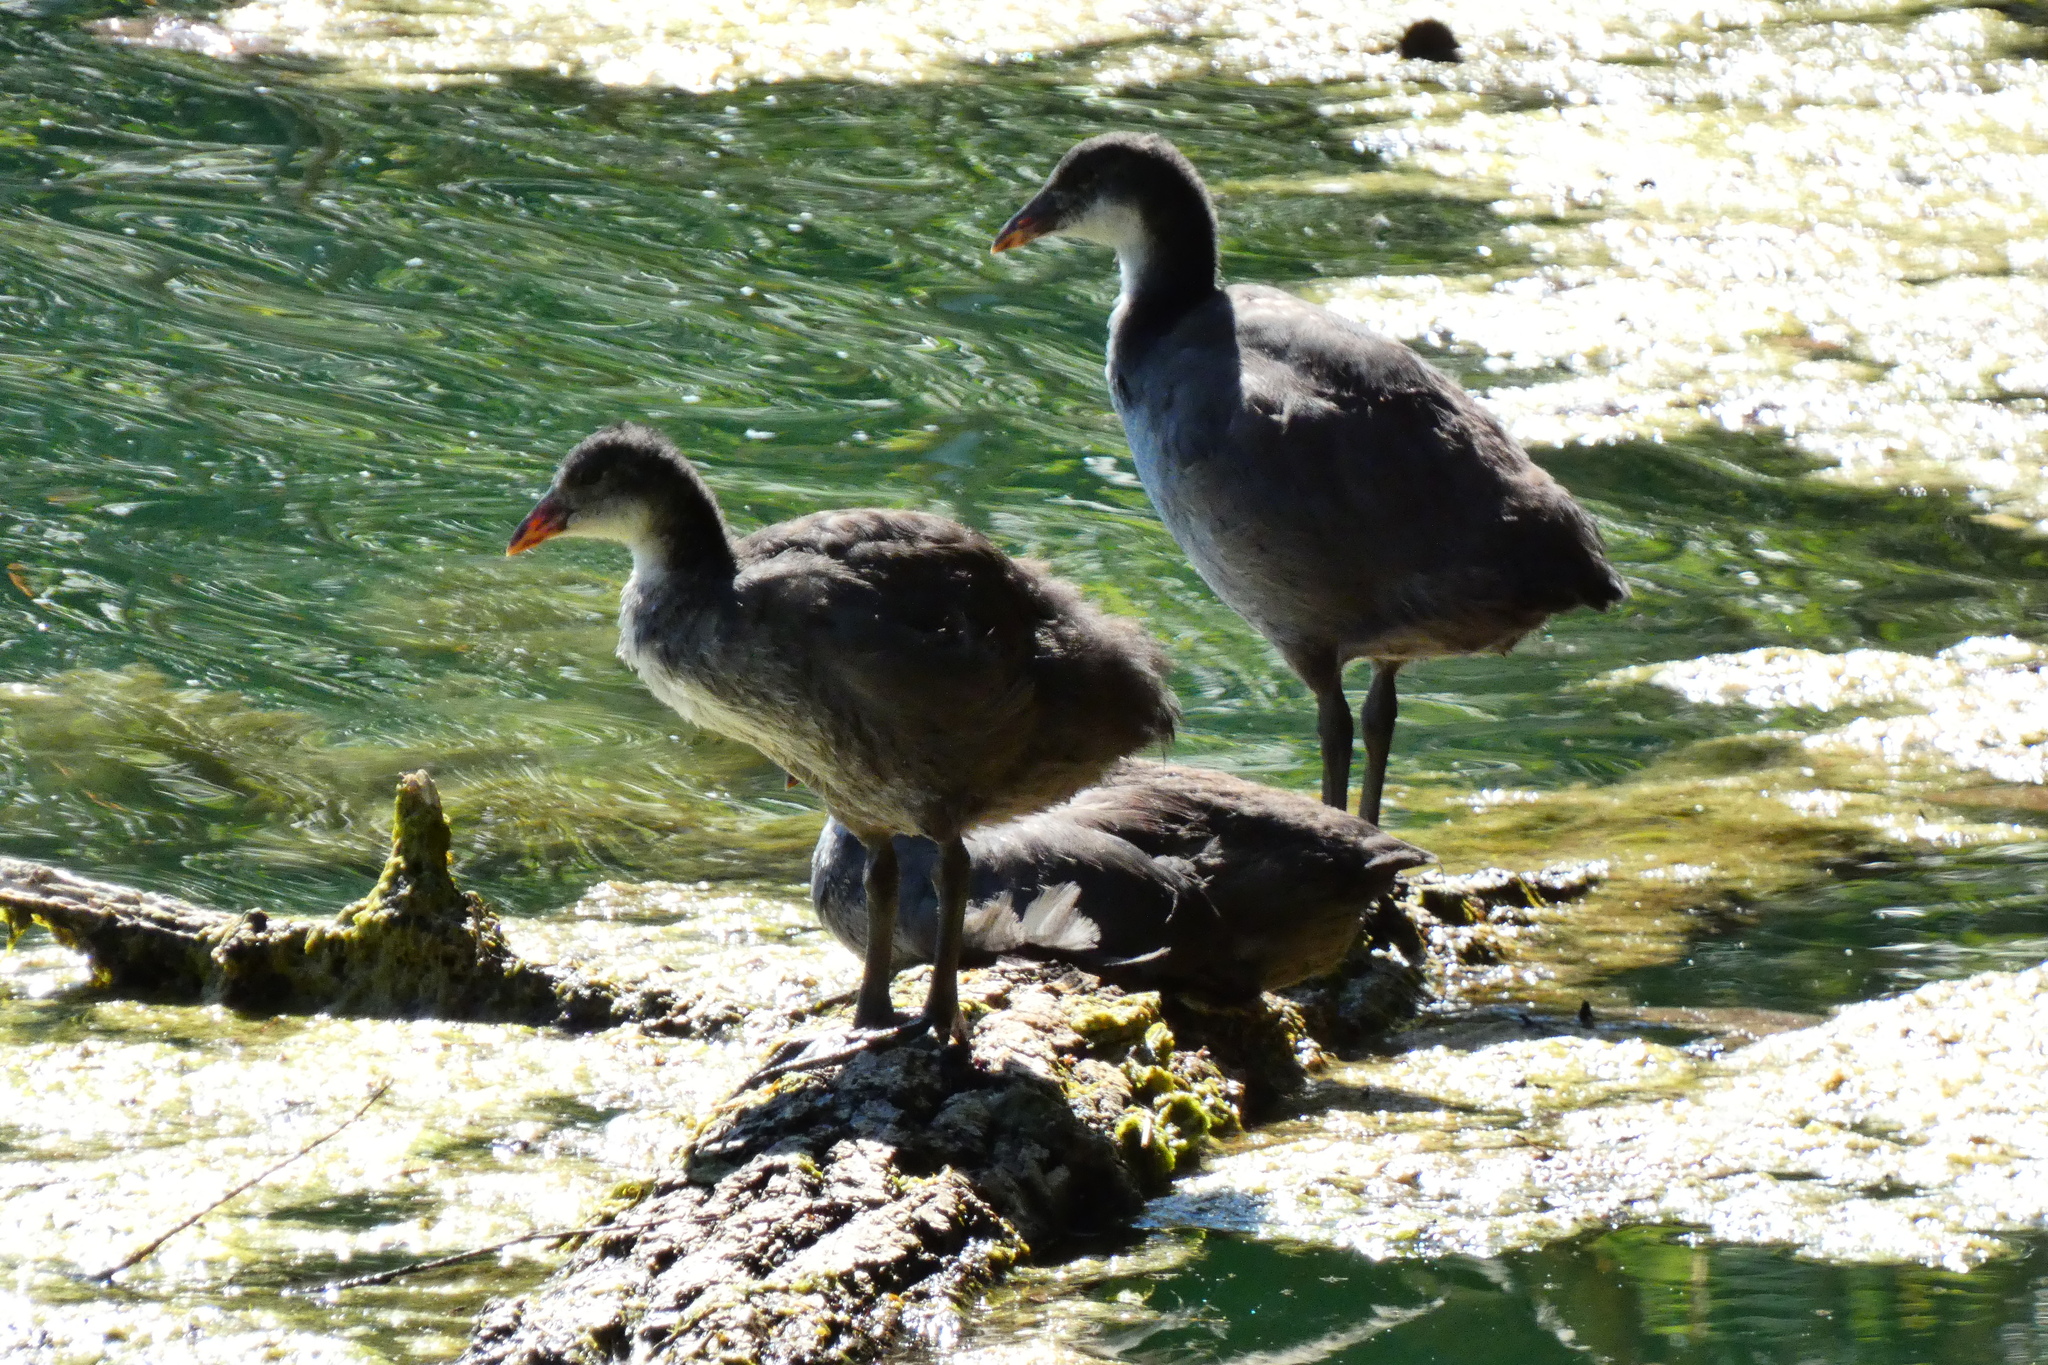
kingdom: Animalia
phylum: Chordata
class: Aves
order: Gruiformes
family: Rallidae
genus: Fulica
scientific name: Fulica atra
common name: Eurasian coot
